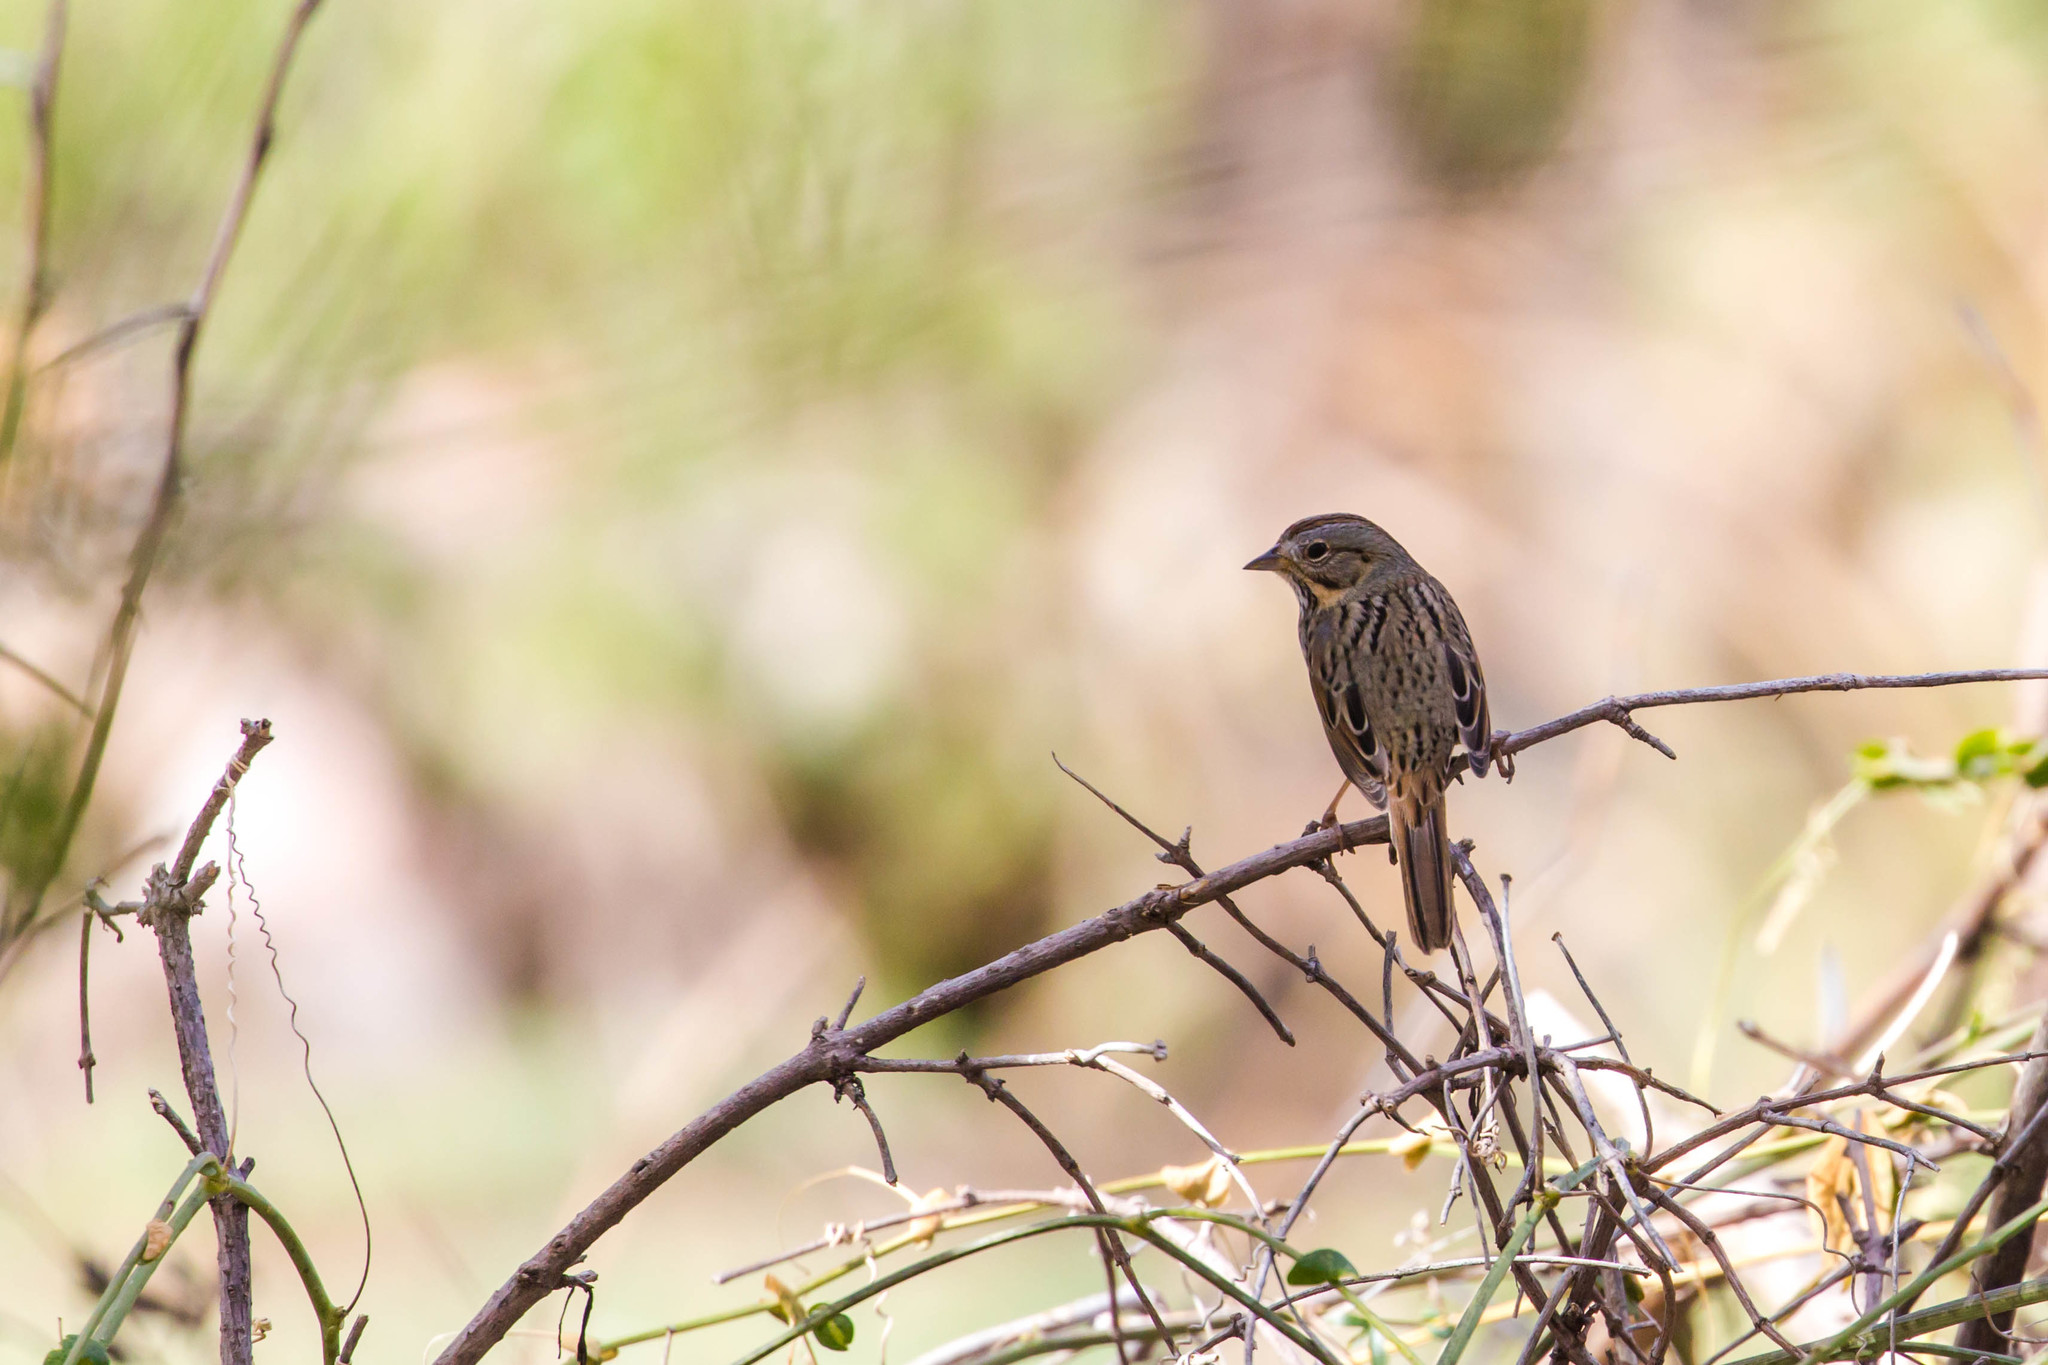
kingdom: Animalia
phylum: Chordata
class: Aves
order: Passeriformes
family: Passerellidae
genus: Melospiza
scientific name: Melospiza lincolnii
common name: Lincoln's sparrow
